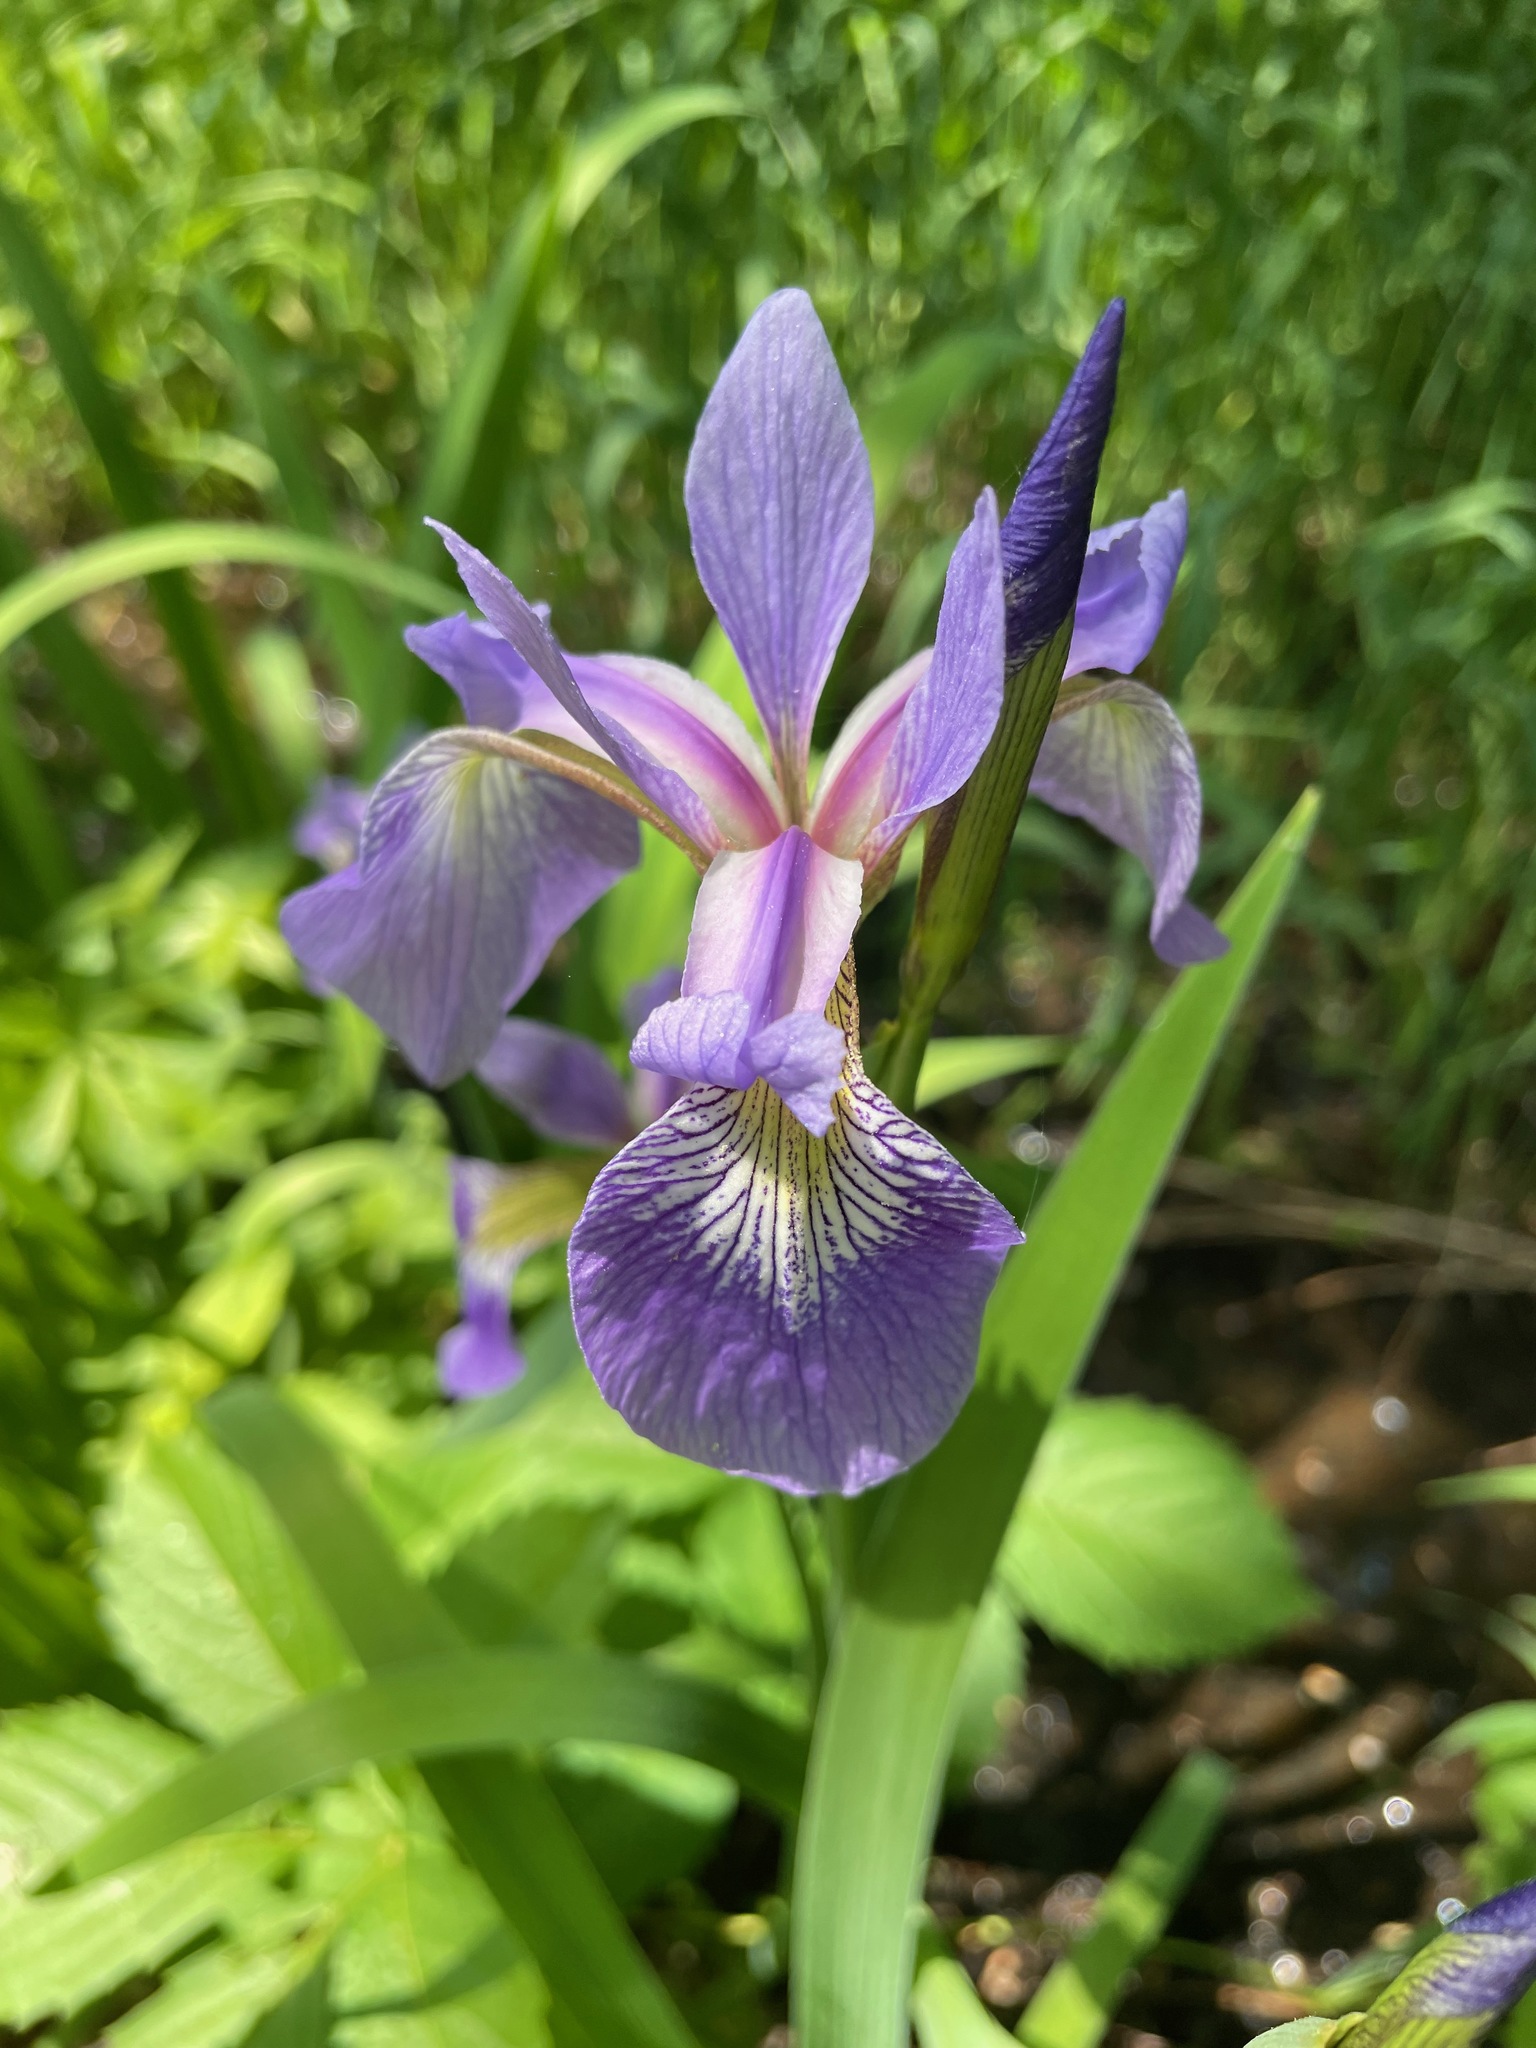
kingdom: Plantae
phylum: Tracheophyta
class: Liliopsida
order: Asparagales
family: Iridaceae
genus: Iris
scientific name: Iris versicolor
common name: Purple iris
